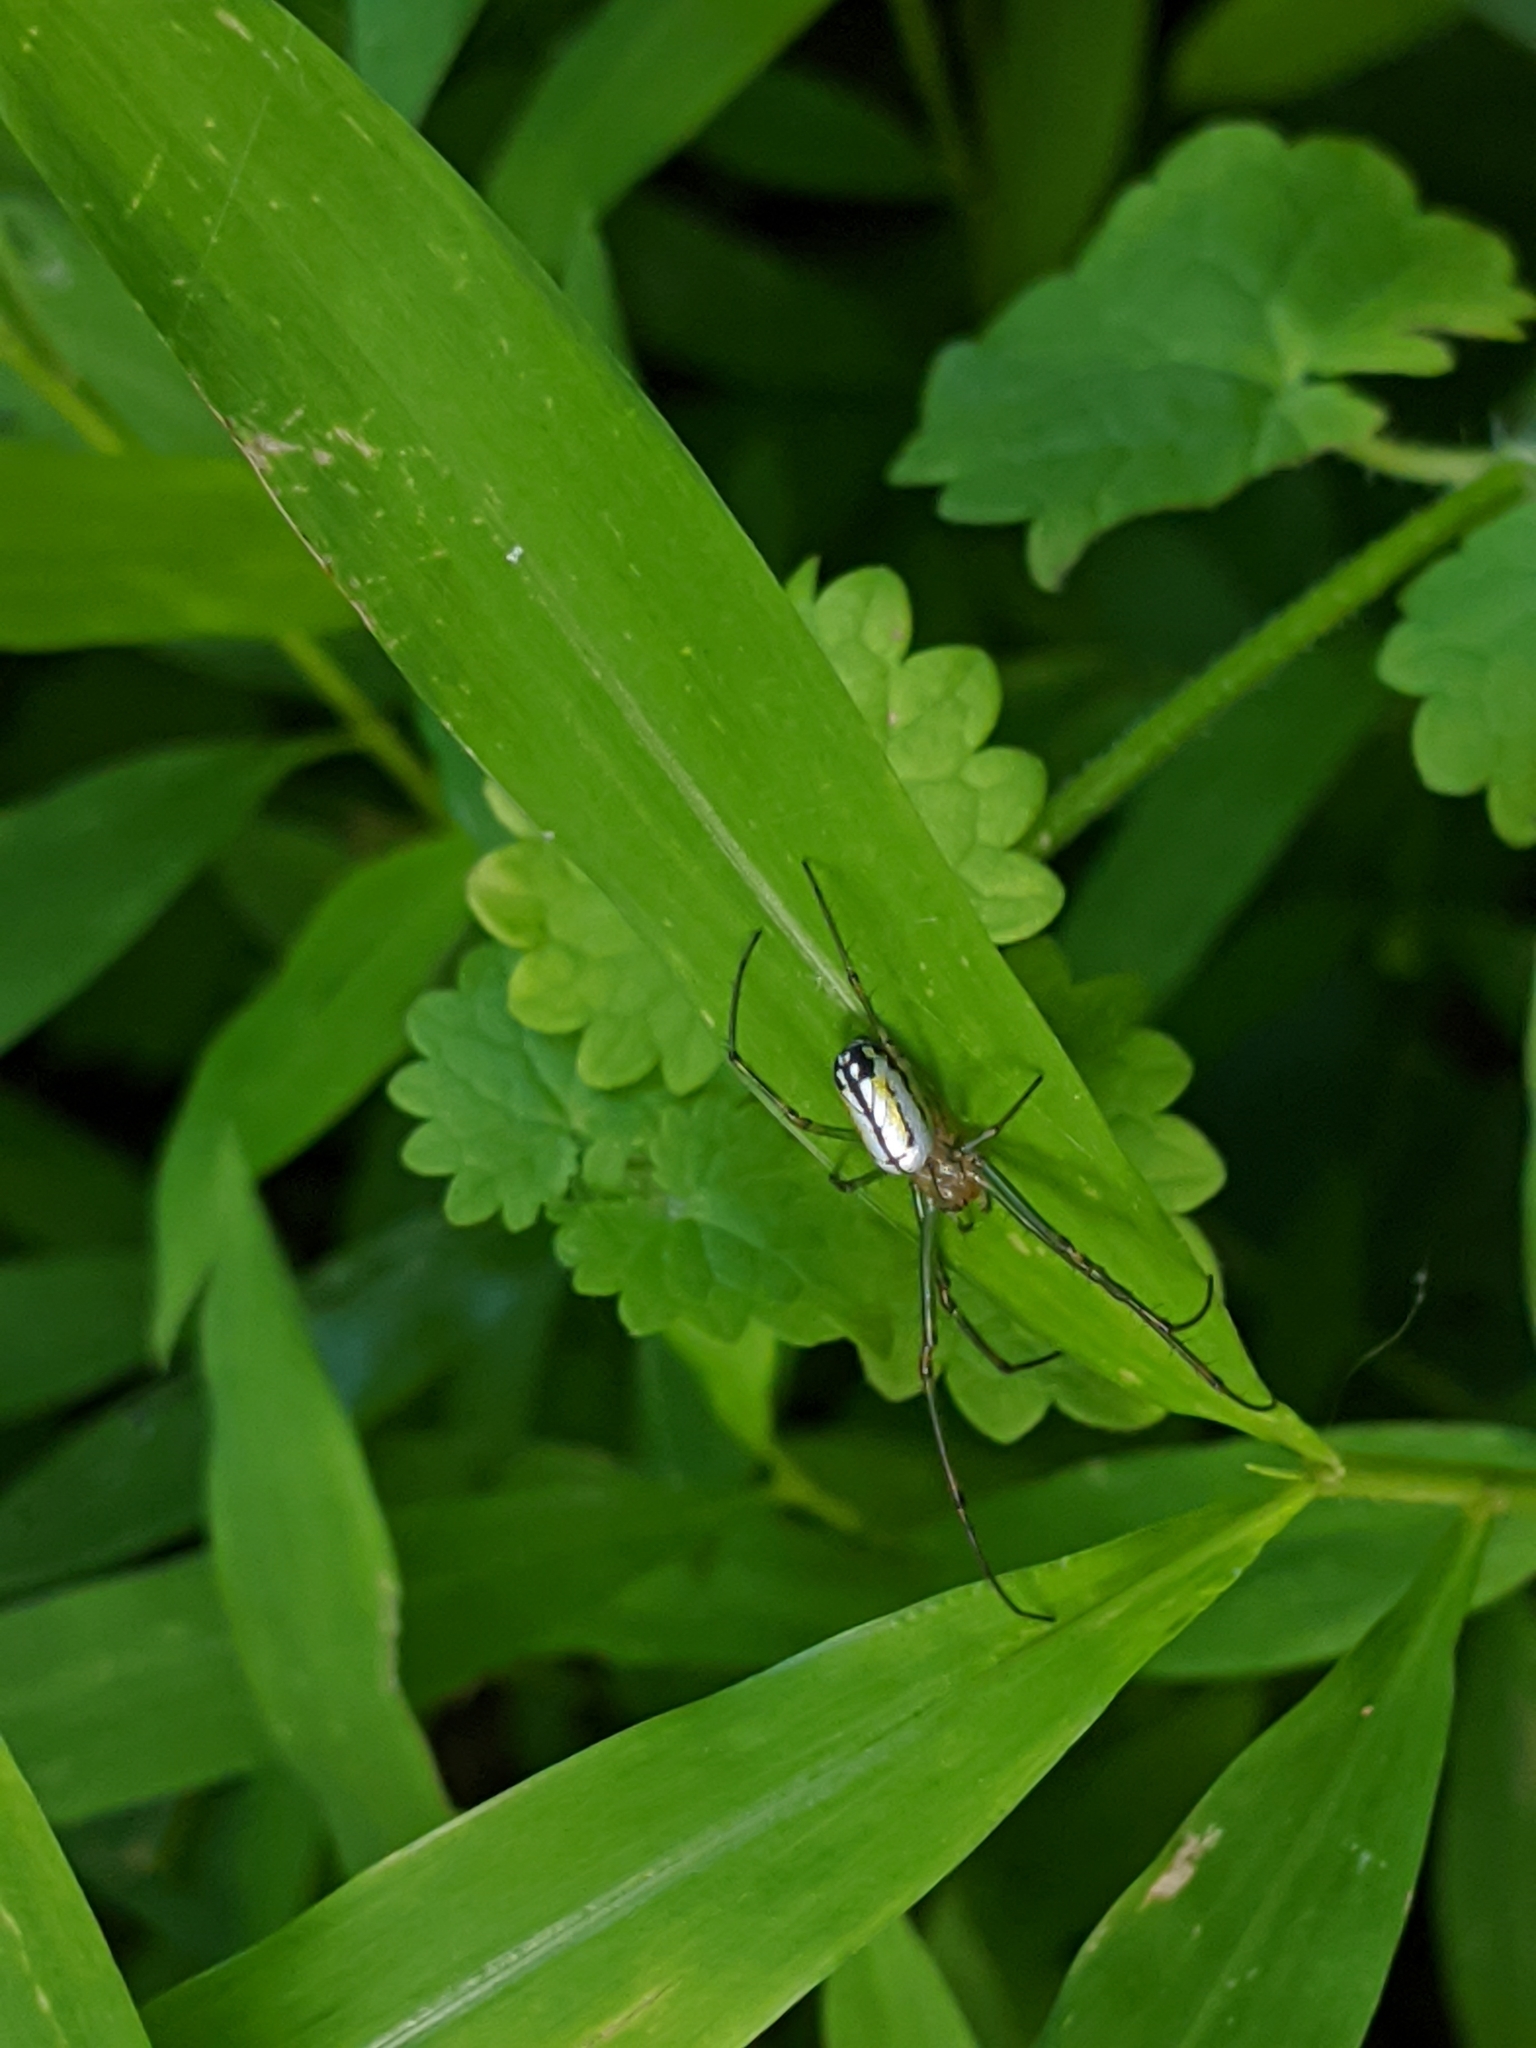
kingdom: Animalia
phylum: Arthropoda
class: Arachnida
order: Araneae
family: Tetragnathidae
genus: Leucauge
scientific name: Leucauge venusta
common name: Longjawed orb weavers
